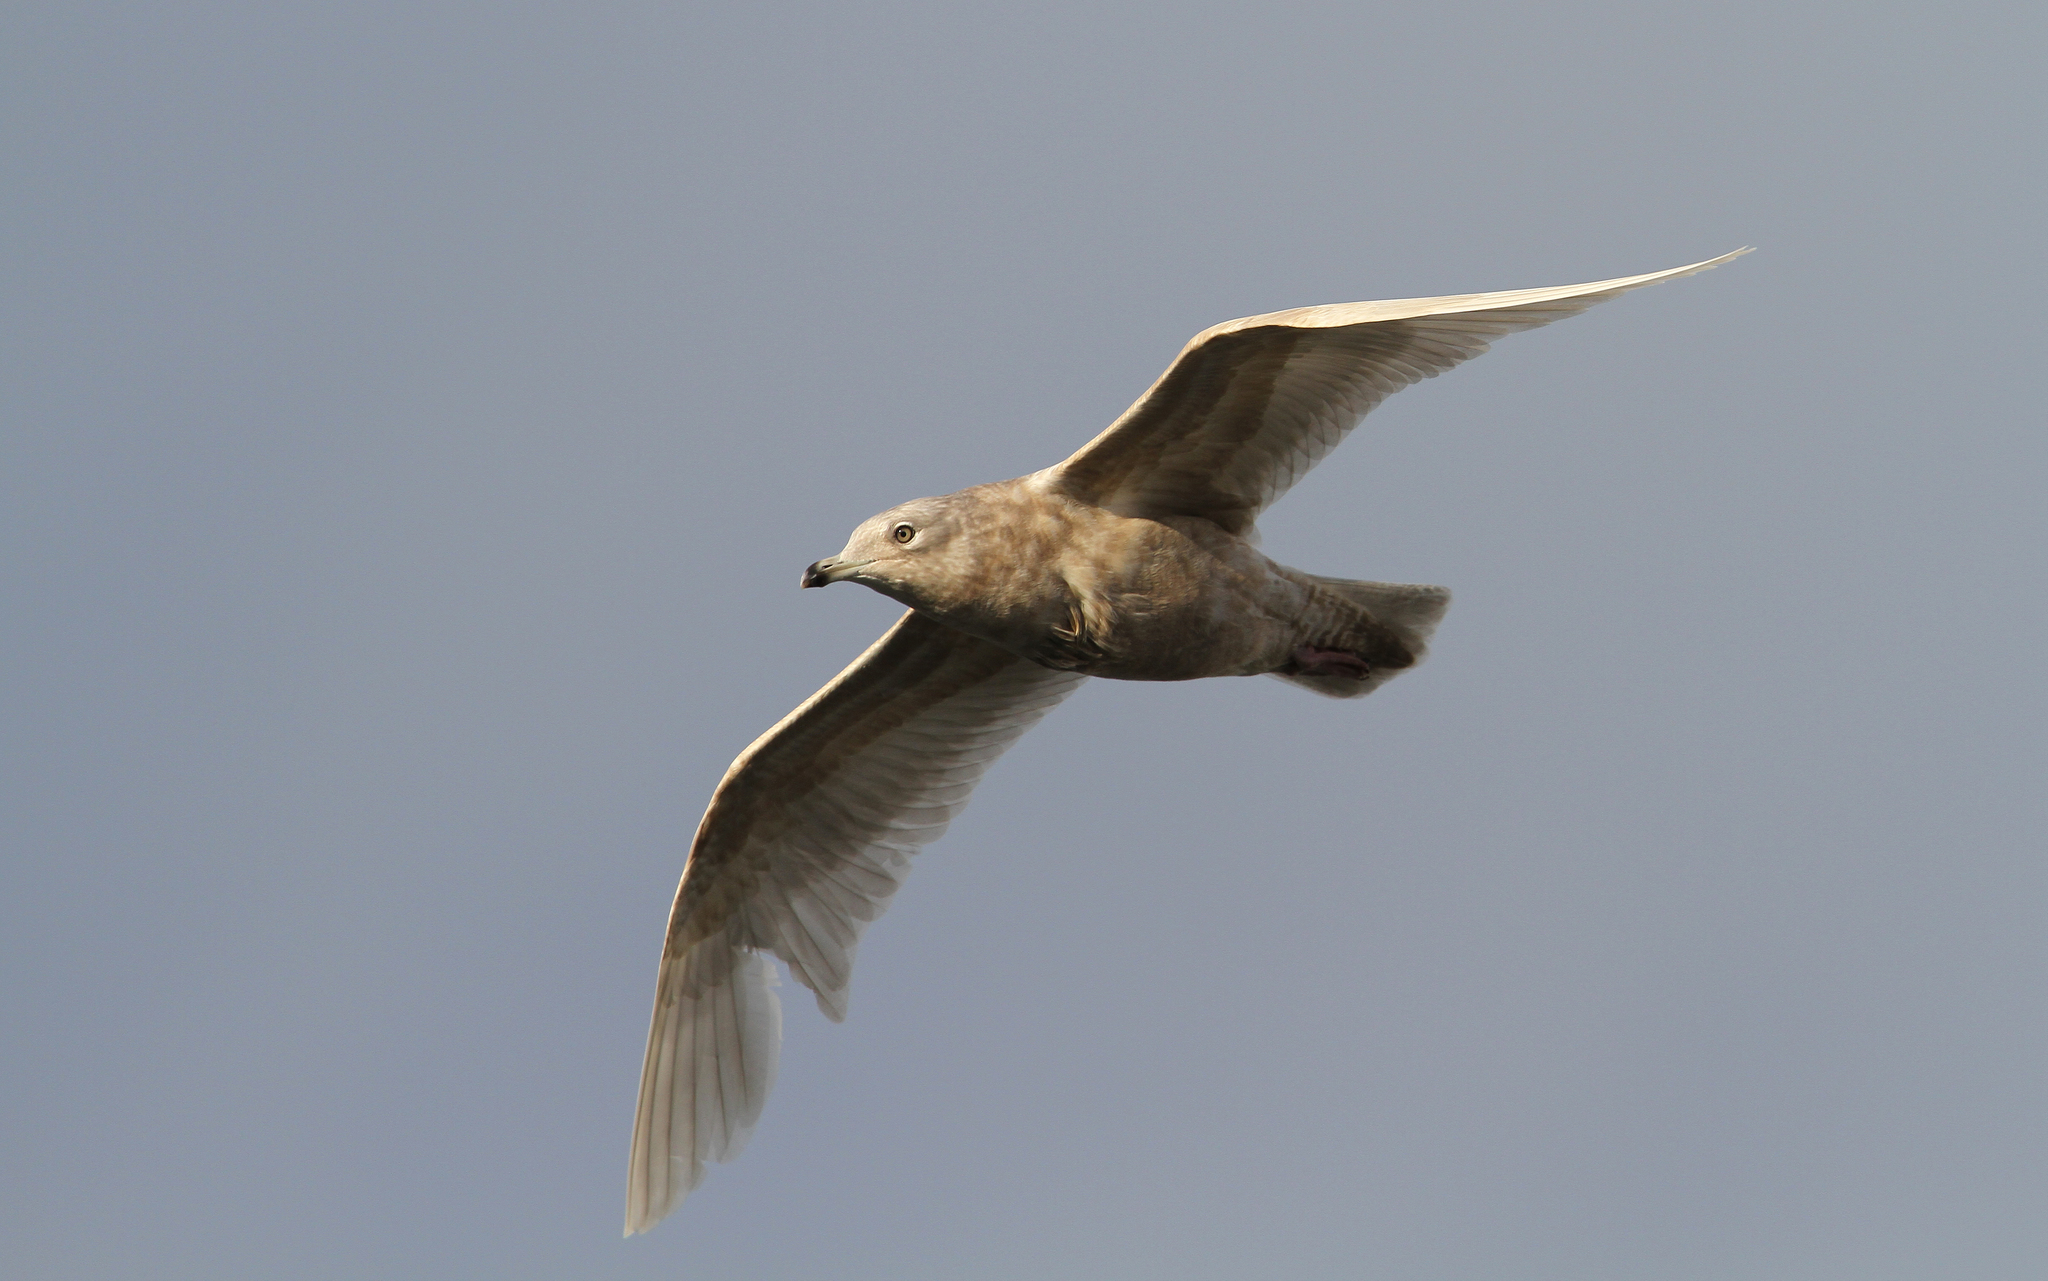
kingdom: Animalia
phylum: Chordata
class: Aves
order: Charadriiformes
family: Laridae
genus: Larus
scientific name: Larus glaucoides
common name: Iceland gull
